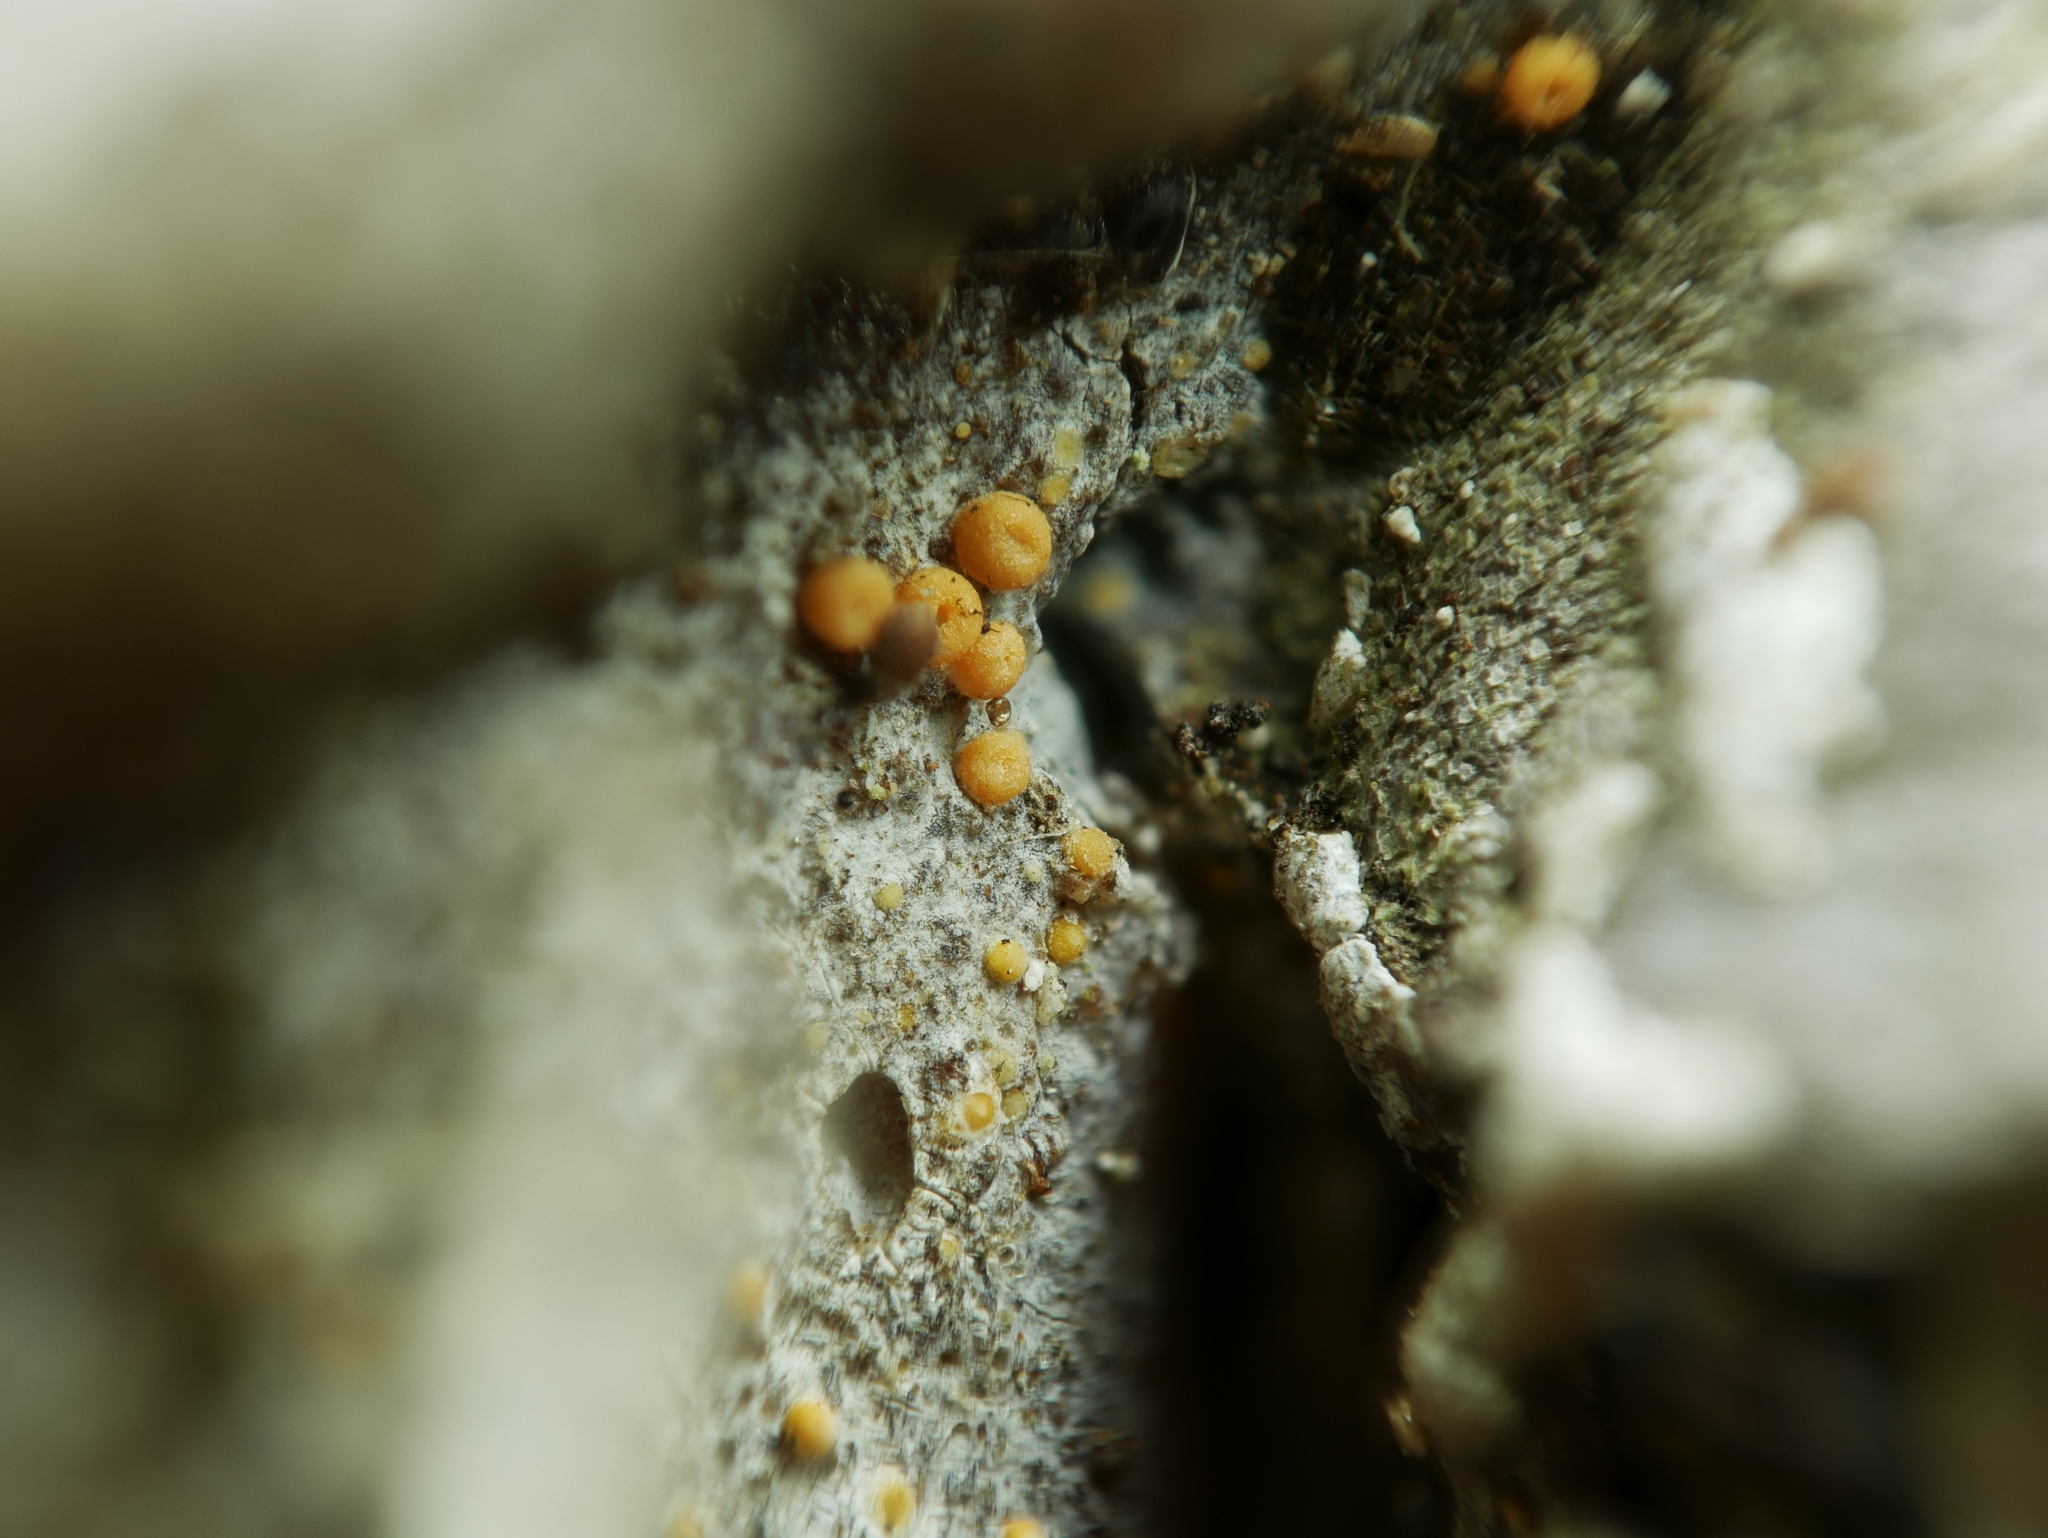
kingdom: Fungi
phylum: Ascomycota
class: Sareomycetes
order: Sareales
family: Sareaceae
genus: Sarea
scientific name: Sarea resinae
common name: Sarea lichen
